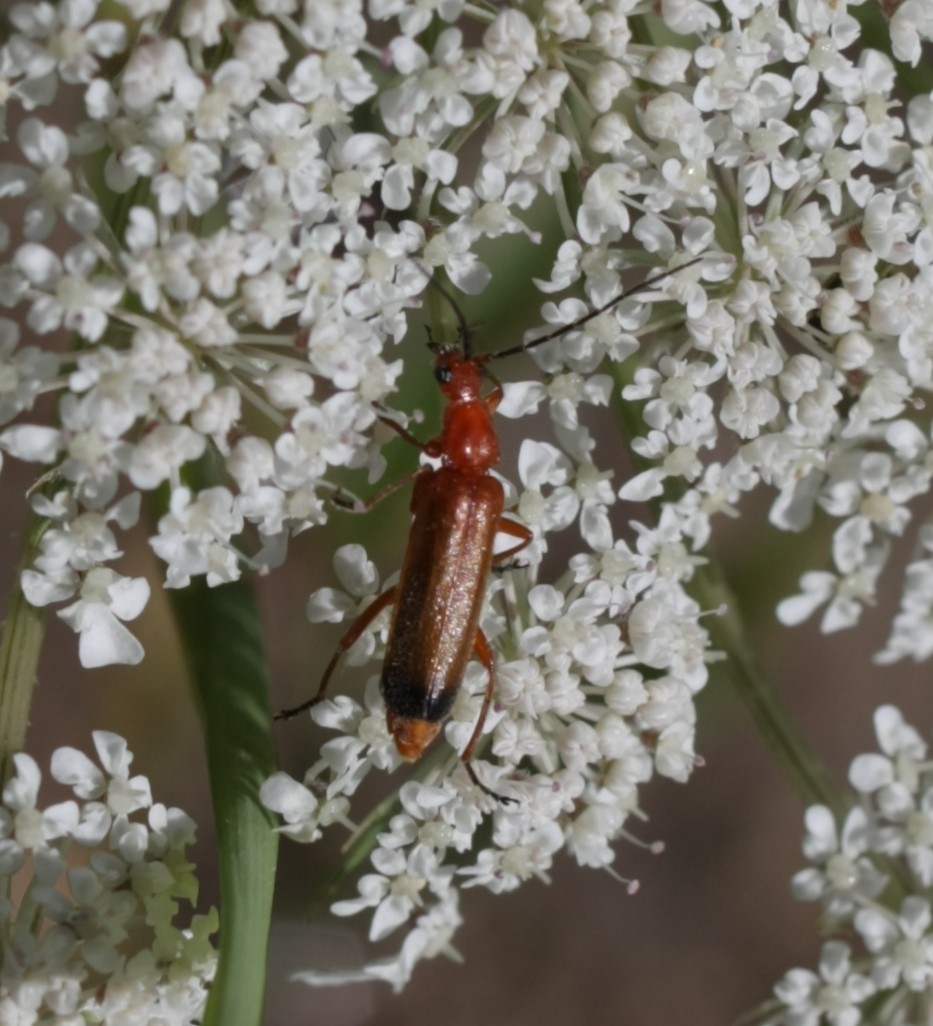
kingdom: Animalia
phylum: Arthropoda
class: Insecta
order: Coleoptera
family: Cantharidae
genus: Rhagonycha
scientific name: Rhagonycha fulva
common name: Common red soldier beetle
